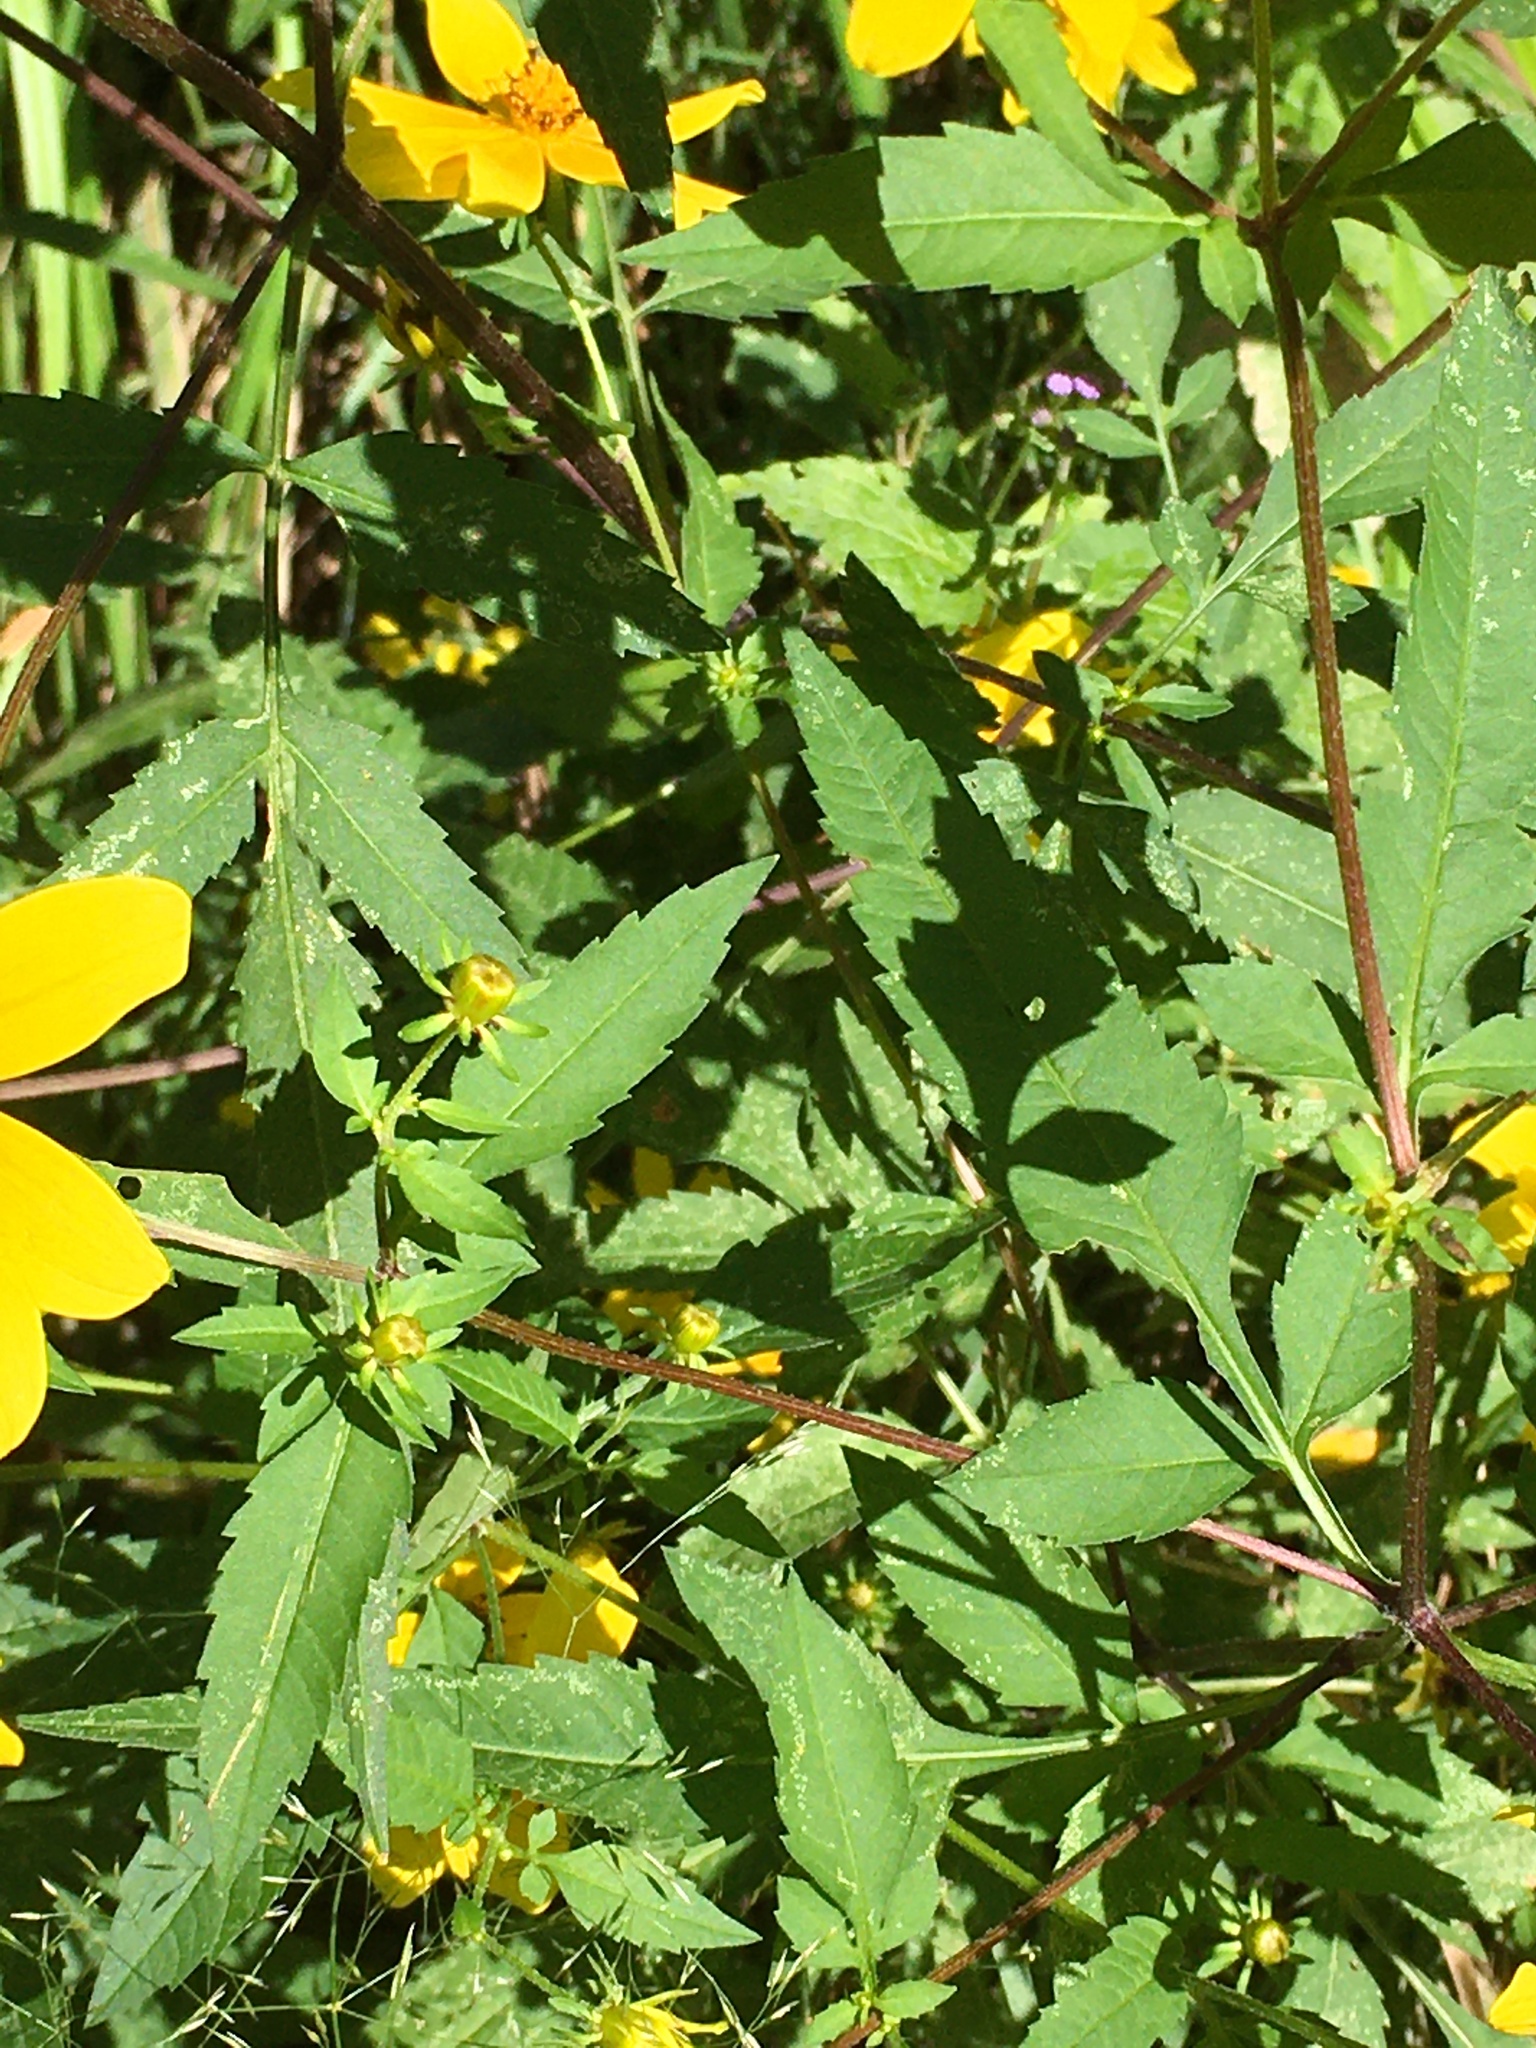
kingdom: Plantae
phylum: Tracheophyta
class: Magnoliopsida
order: Asterales
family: Asteraceae
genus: Bidens
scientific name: Bidens aristosa
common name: Western tickseed
